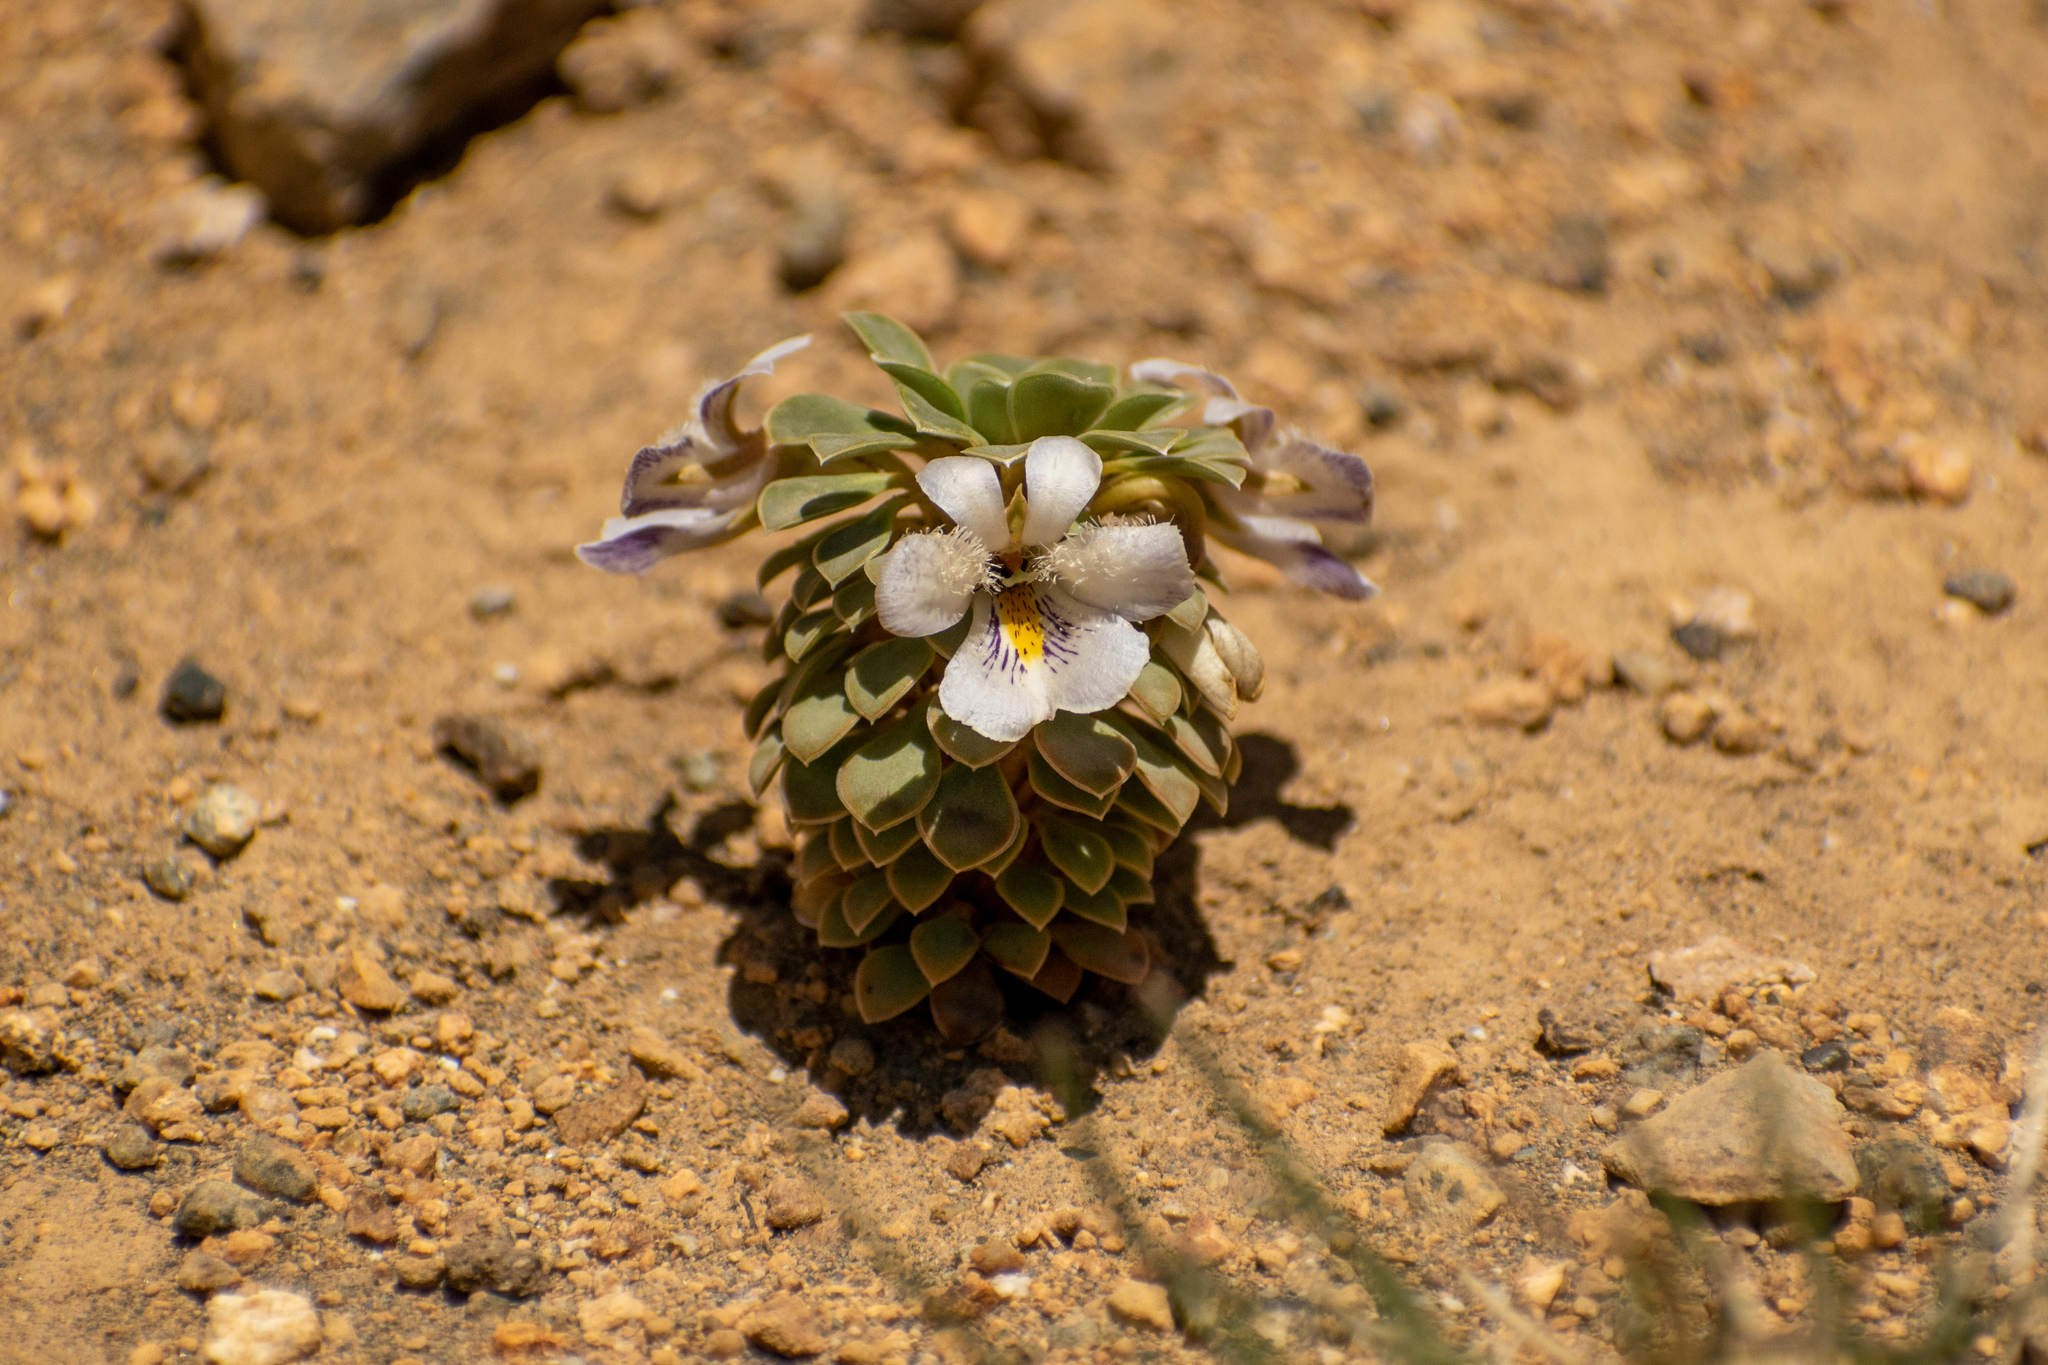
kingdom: Plantae
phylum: Tracheophyta
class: Magnoliopsida
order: Malpighiales
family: Violaceae
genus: Viola
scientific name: Viola petraea
